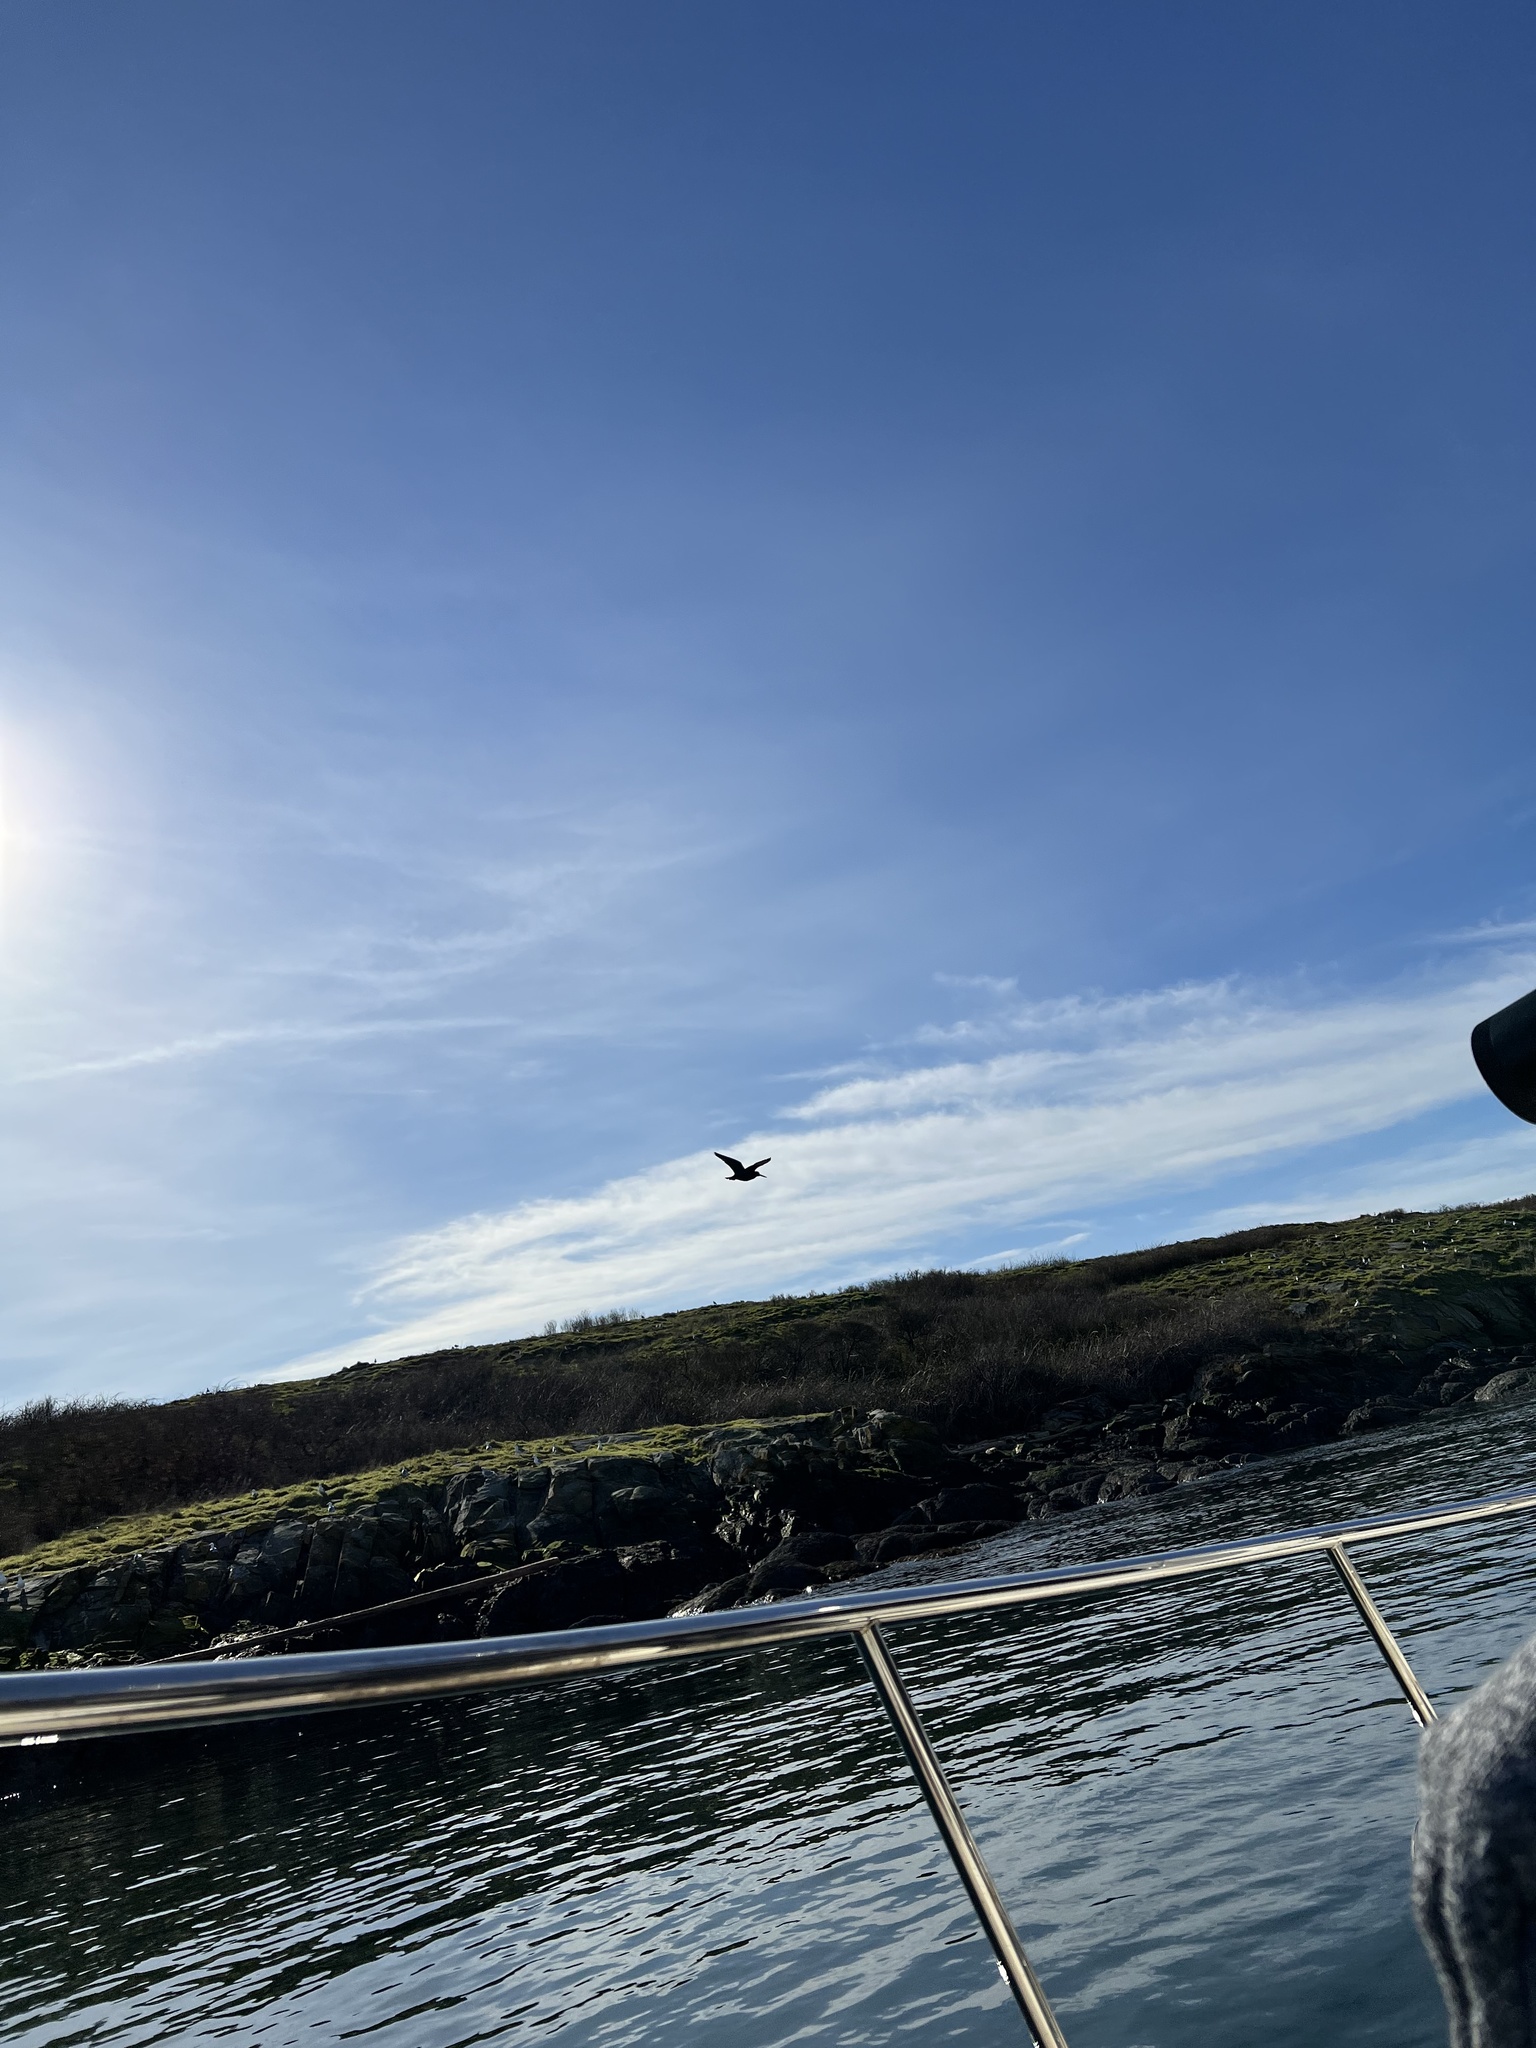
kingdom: Animalia
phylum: Chordata
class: Aves
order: Charadriiformes
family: Haematopodidae
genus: Haematopus
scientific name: Haematopus bachmani
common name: Black oystercatcher
